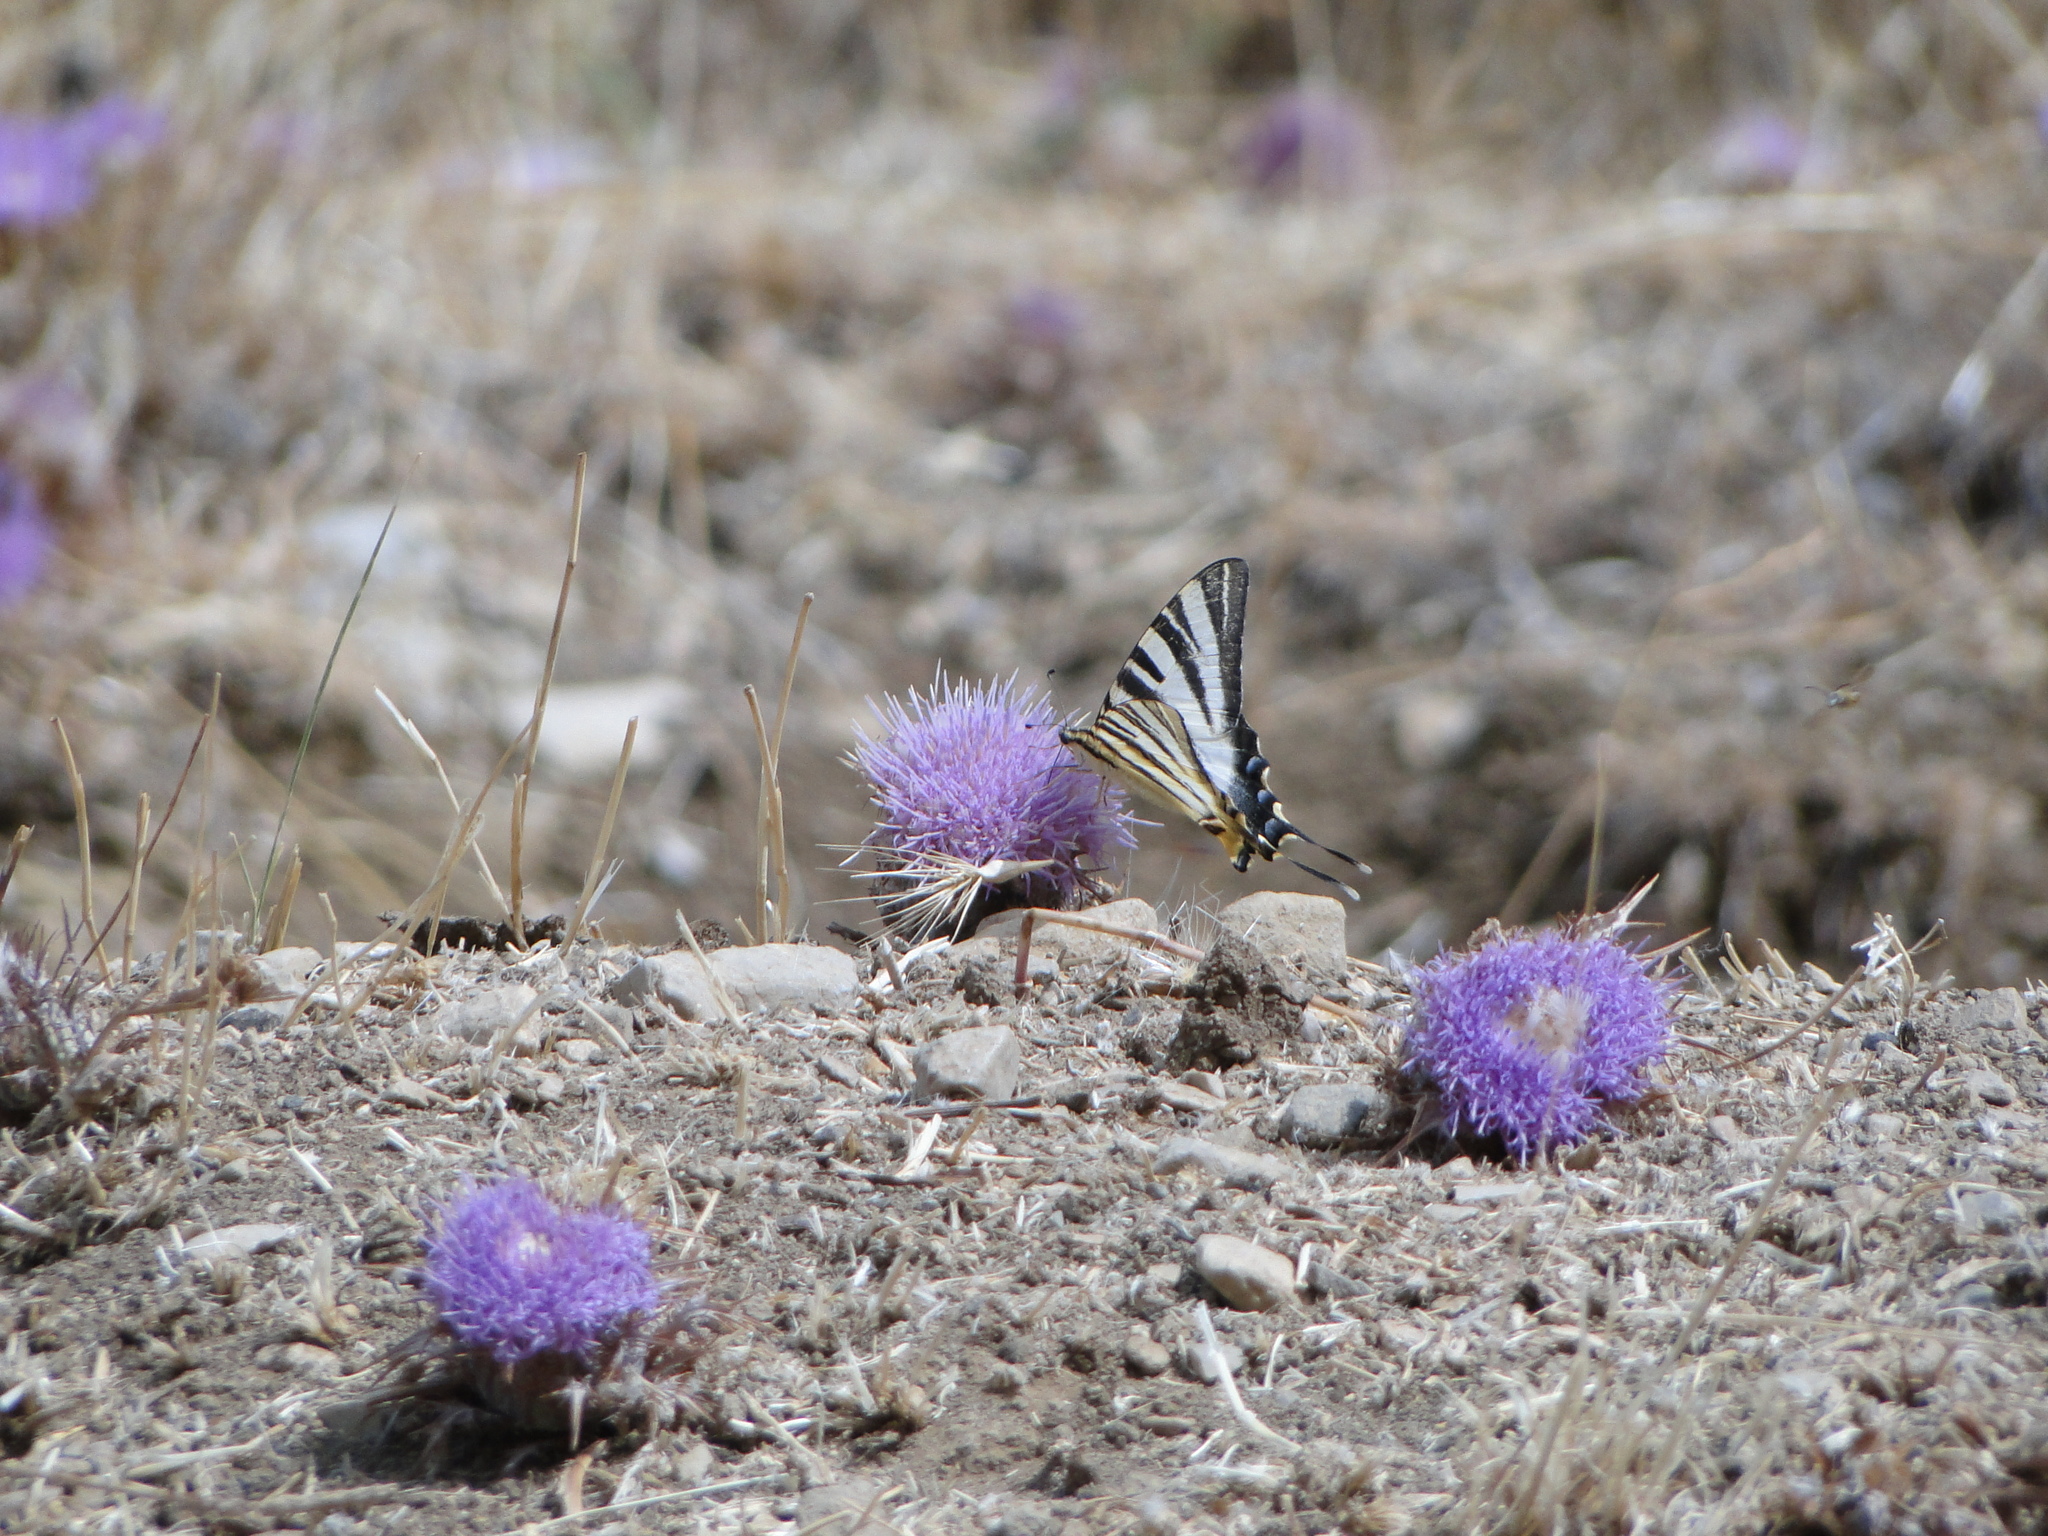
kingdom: Animalia
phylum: Arthropoda
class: Insecta
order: Lepidoptera
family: Papilionidae
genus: Iphiclides
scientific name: Iphiclides feisthamelii
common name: Iberian scarce swallowtail
